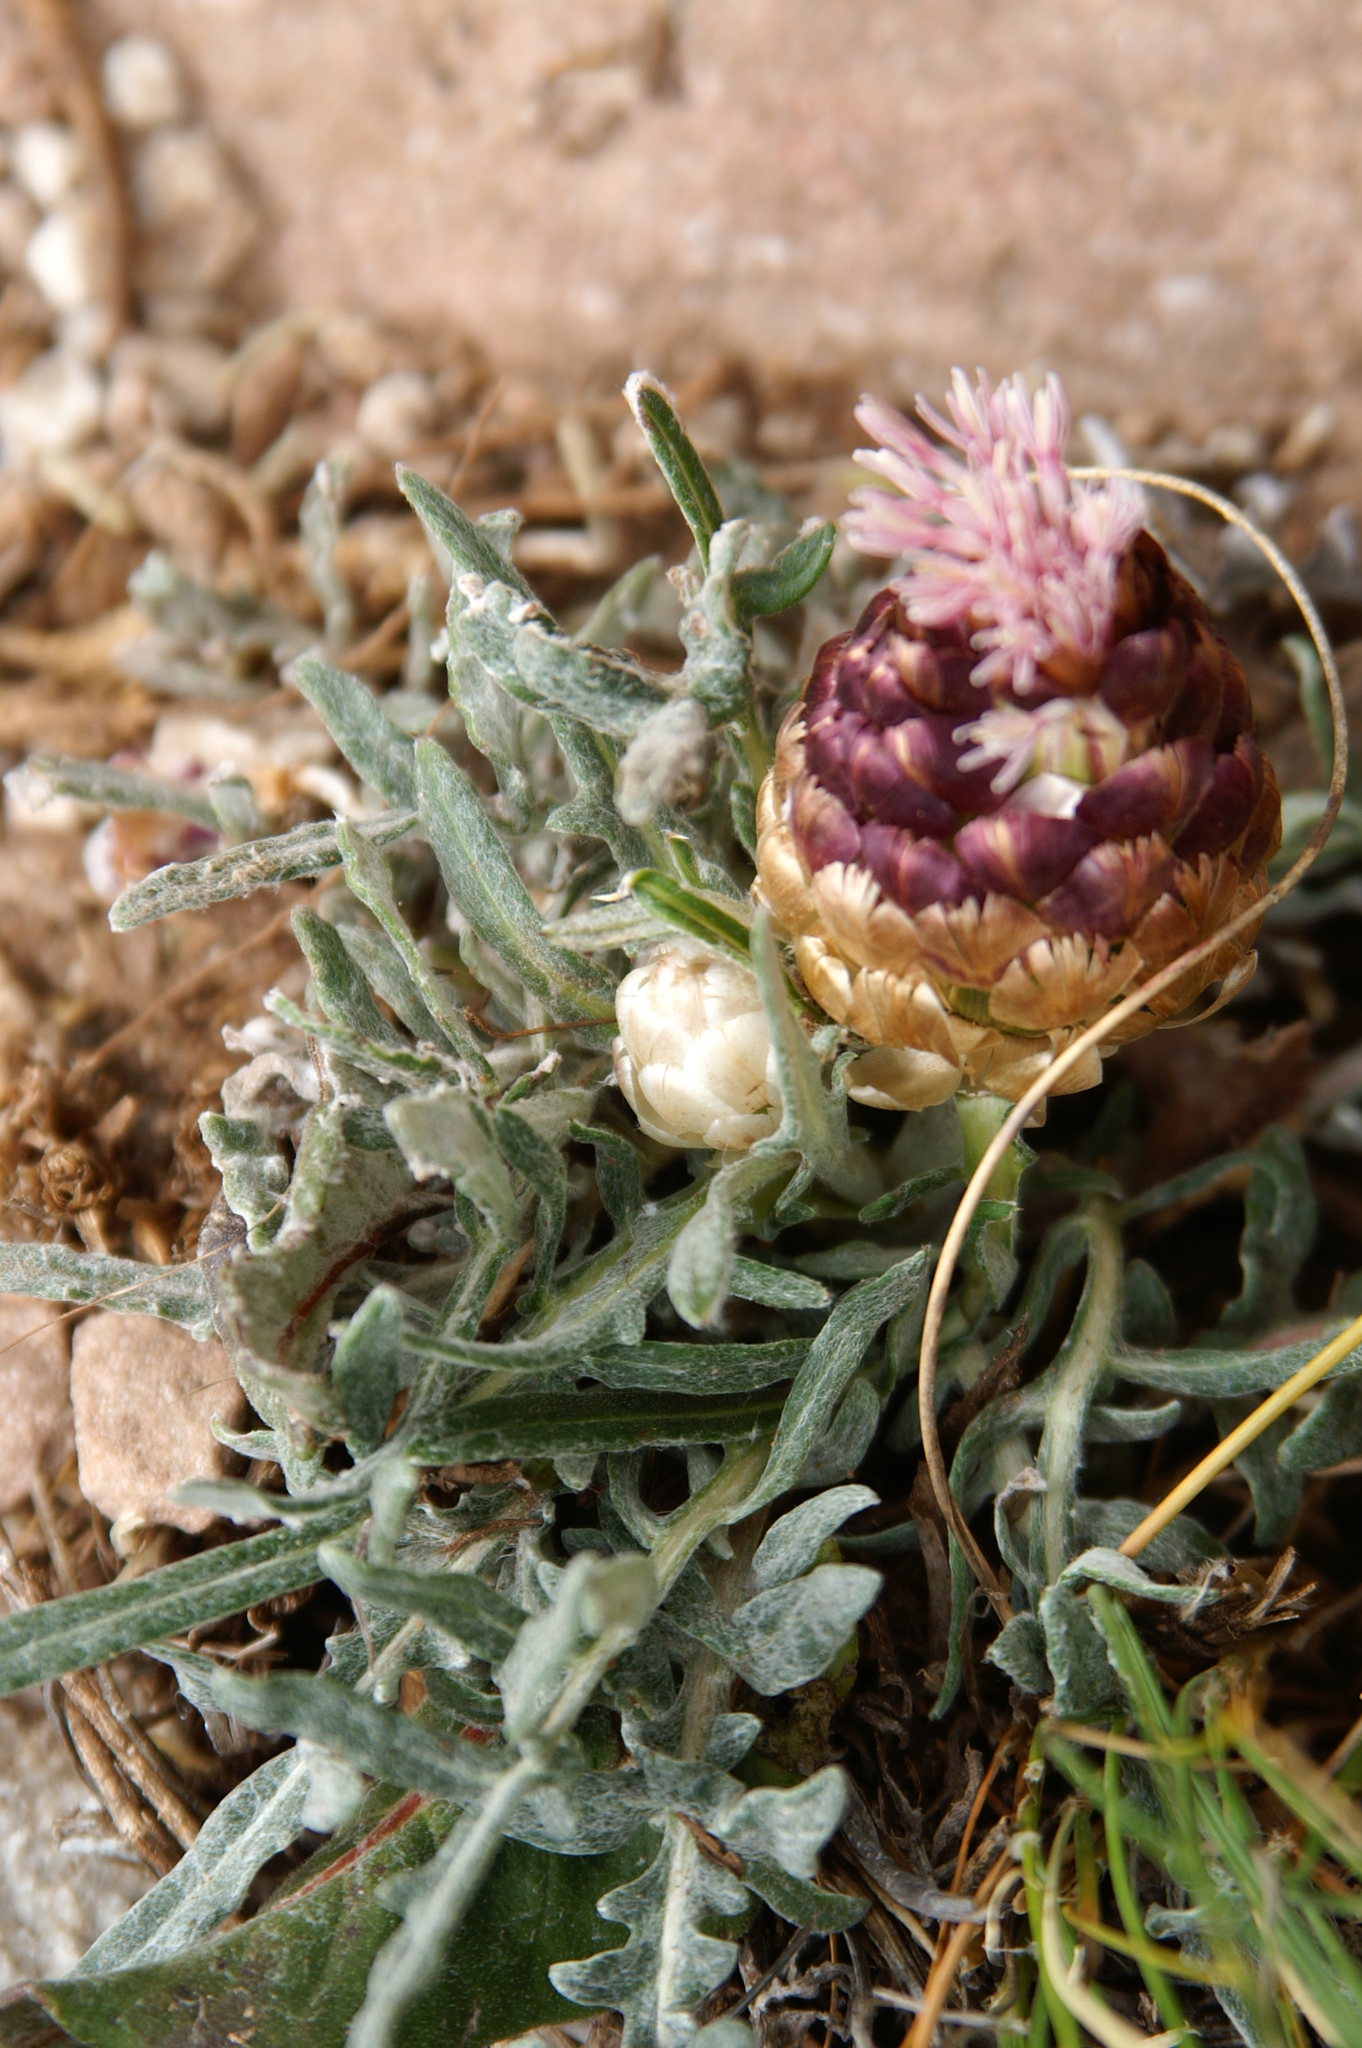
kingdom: Plantae
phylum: Tracheophyta
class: Magnoliopsida
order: Asterales
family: Asteraceae
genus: Leuzea
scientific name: Leuzea conifera
